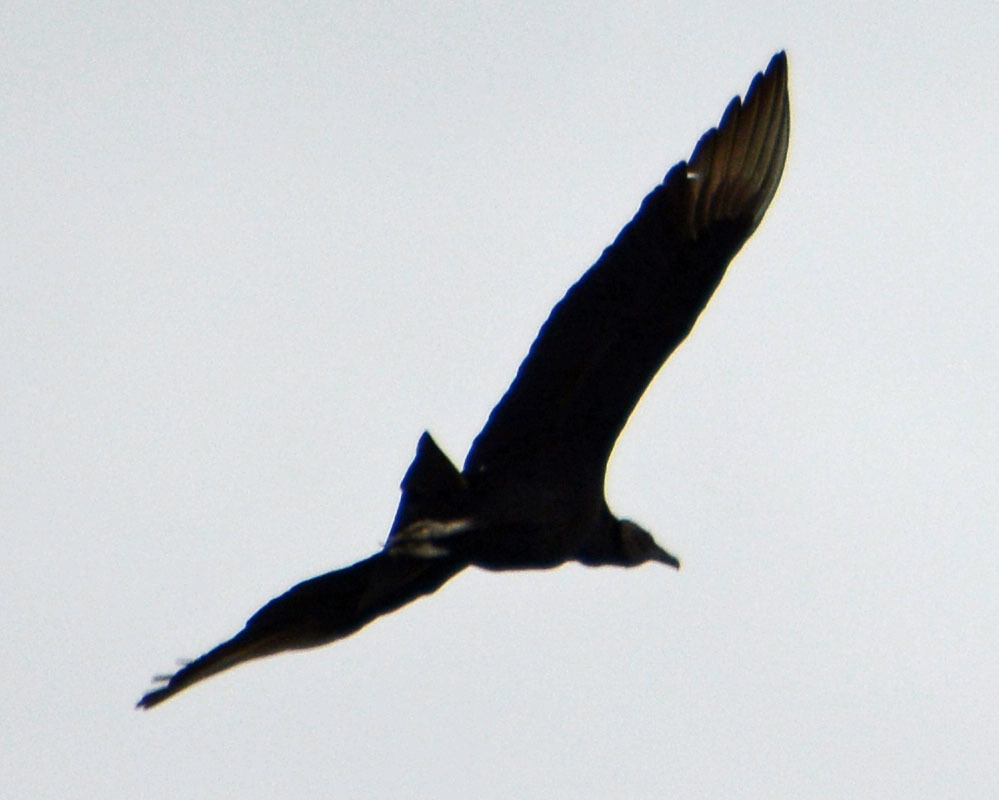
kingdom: Animalia
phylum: Chordata
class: Aves
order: Accipitriformes
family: Cathartidae
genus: Coragyps
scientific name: Coragyps atratus
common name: Black vulture
